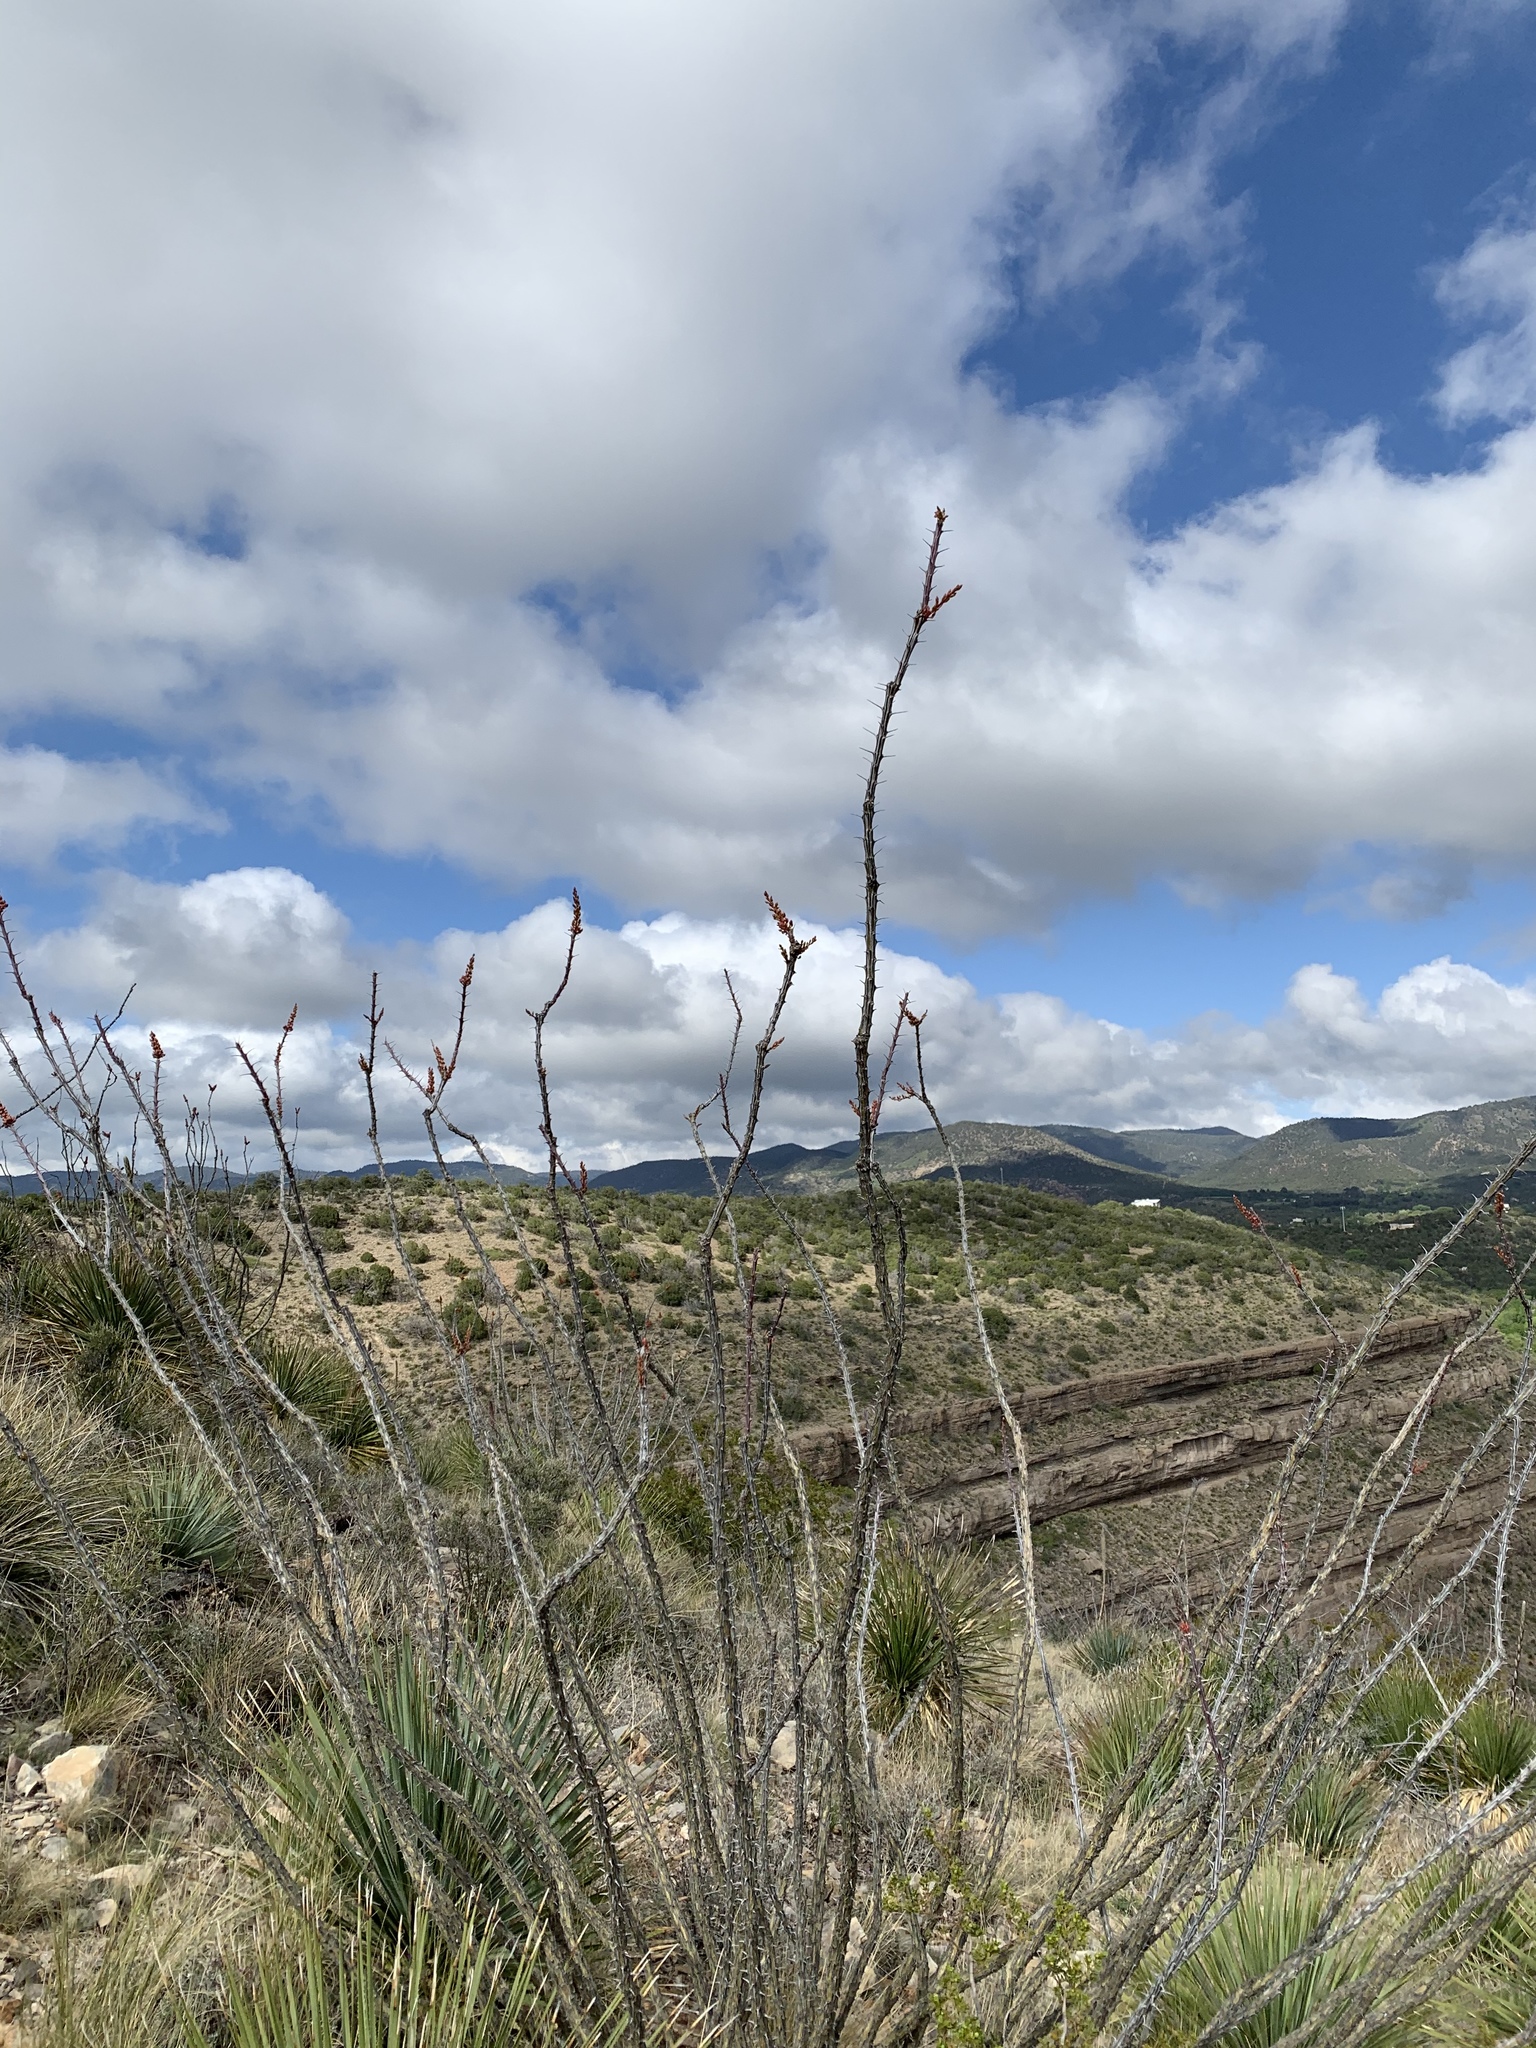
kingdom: Plantae
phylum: Tracheophyta
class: Magnoliopsida
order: Ericales
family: Fouquieriaceae
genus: Fouquieria
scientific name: Fouquieria splendens
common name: Vine-cactus
